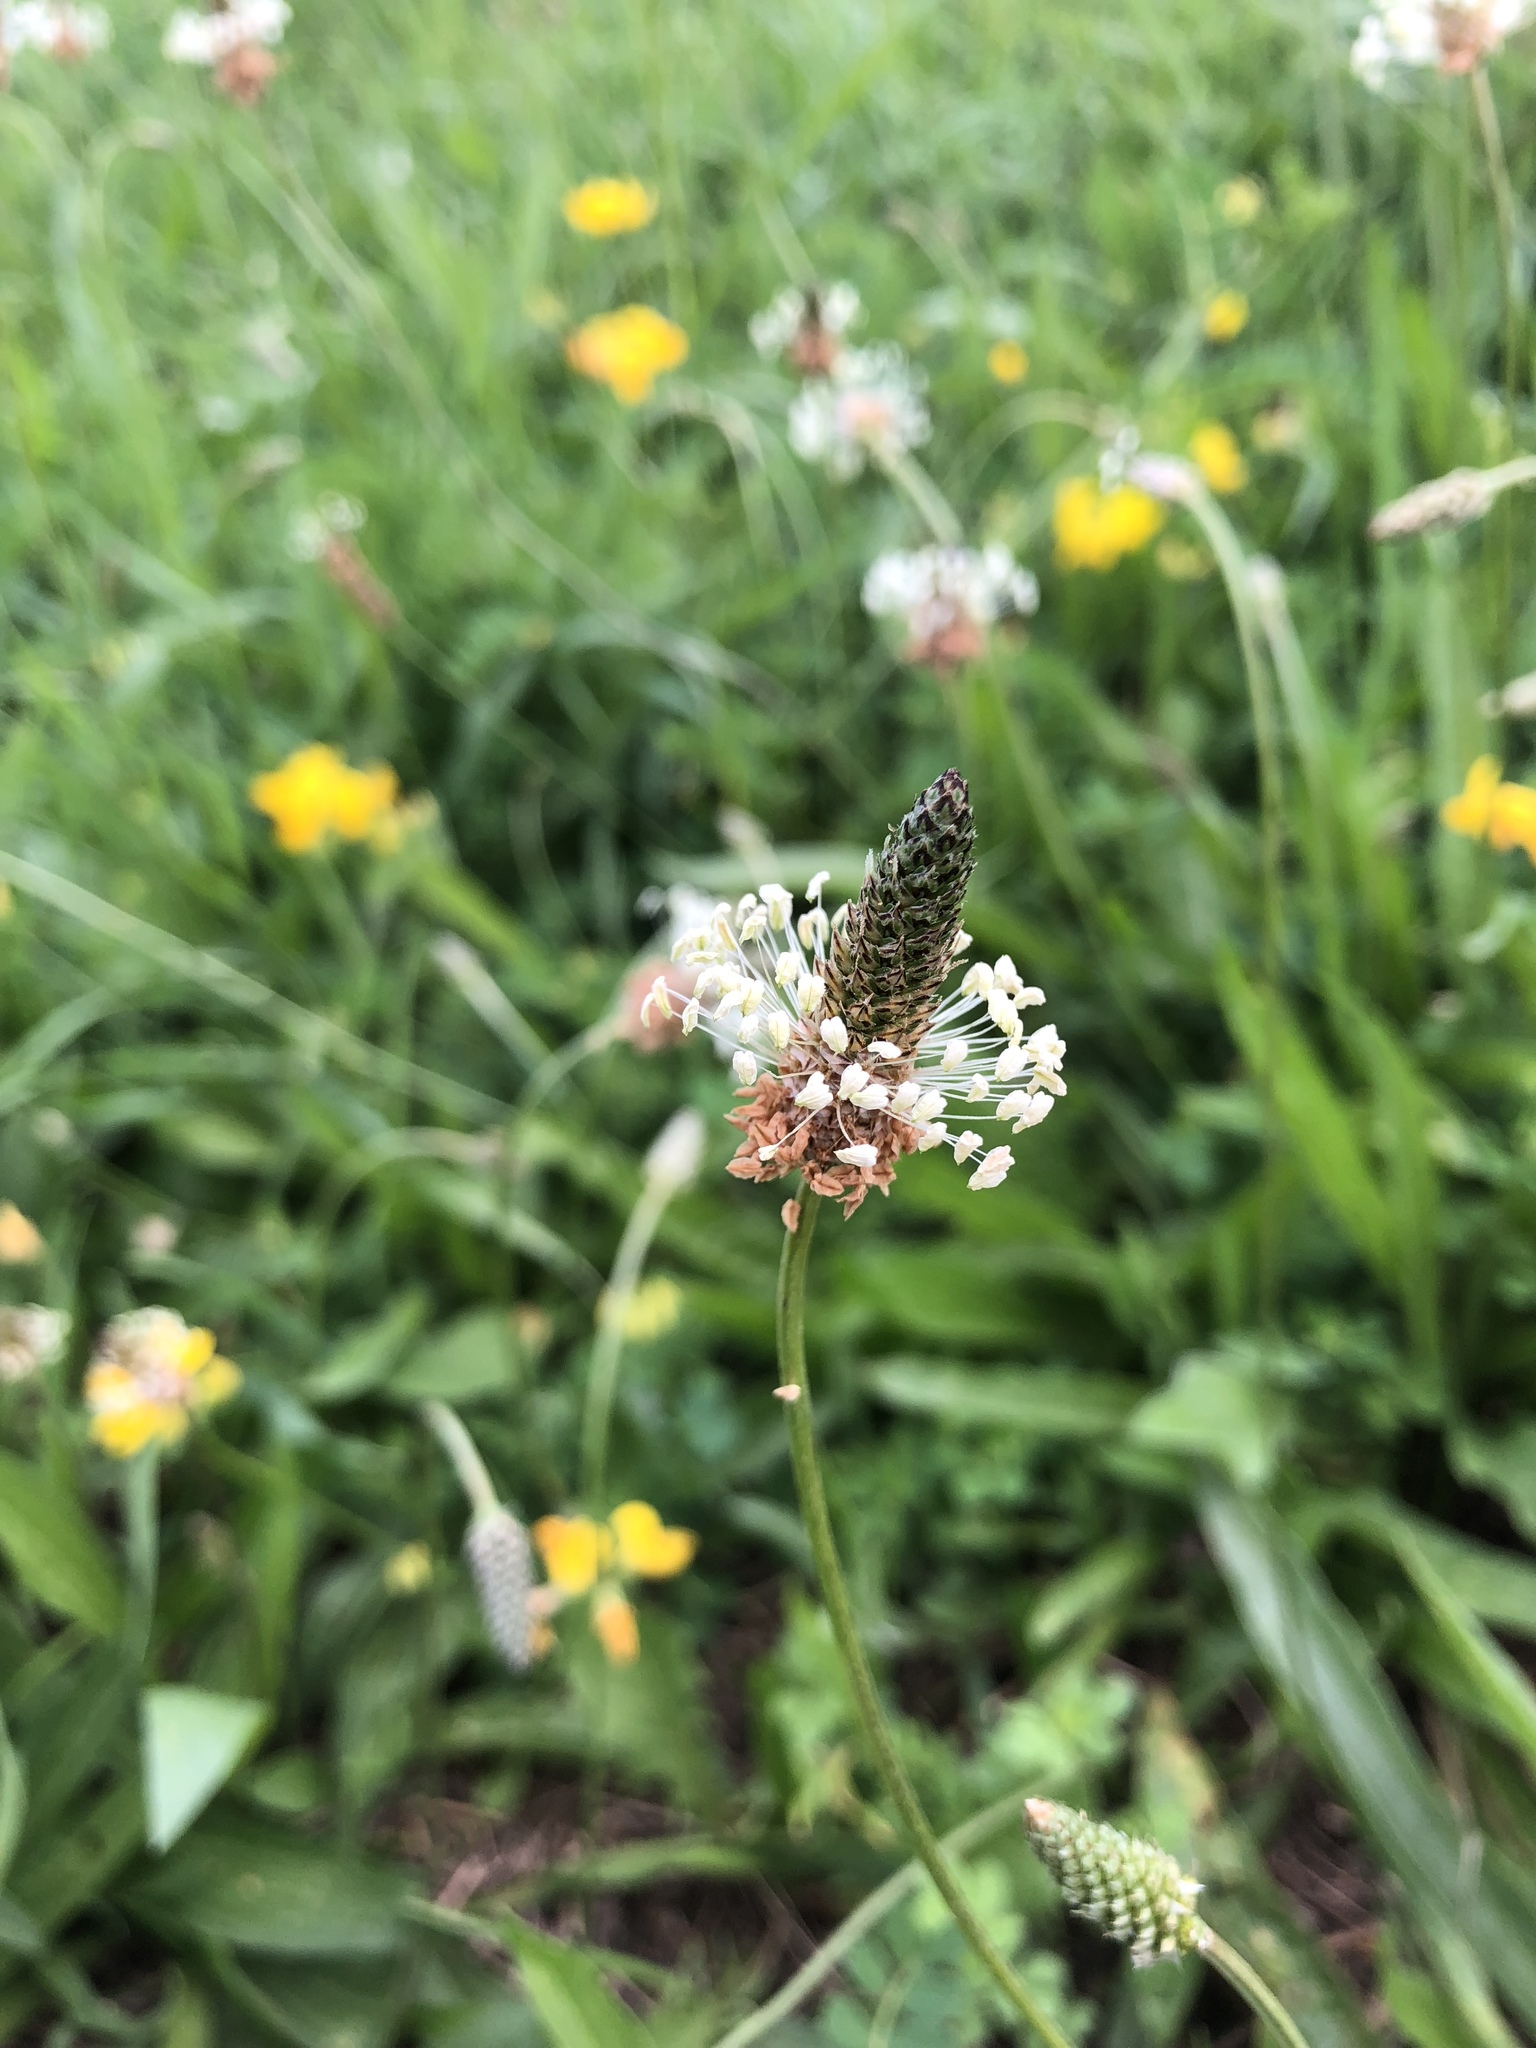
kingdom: Plantae
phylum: Tracheophyta
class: Magnoliopsida
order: Lamiales
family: Plantaginaceae
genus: Plantago
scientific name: Plantago lanceolata
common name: Ribwort plantain
